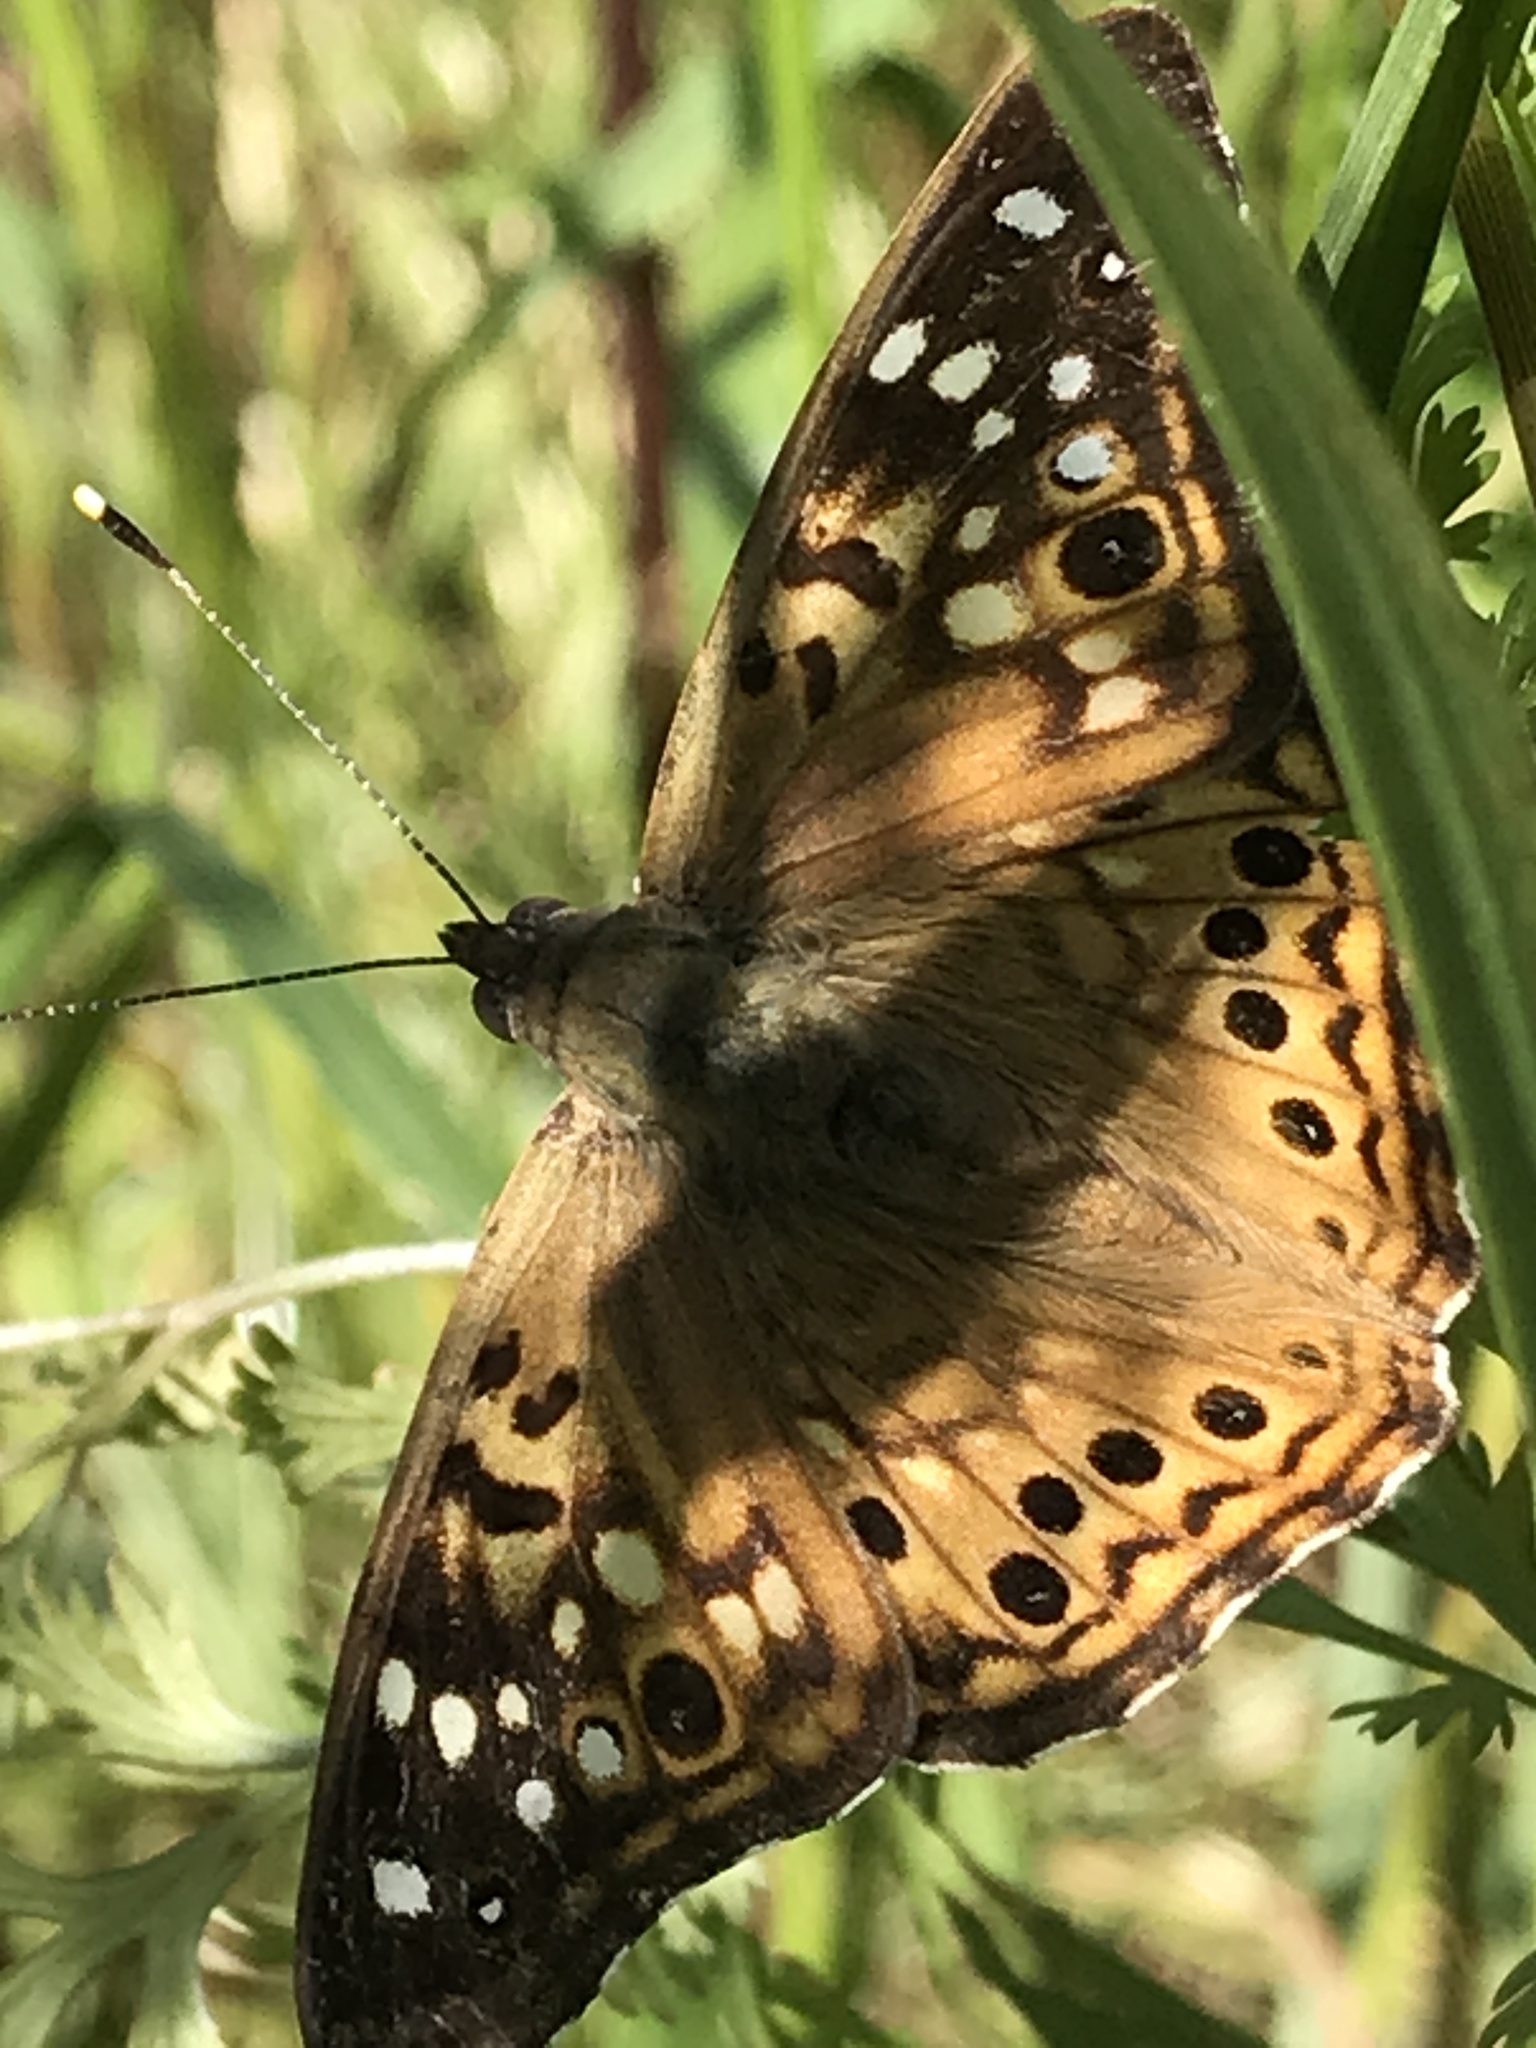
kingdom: Animalia
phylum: Arthropoda
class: Insecta
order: Lepidoptera
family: Nymphalidae
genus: Asterocampa
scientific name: Asterocampa celtis
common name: Hackberry emperor
